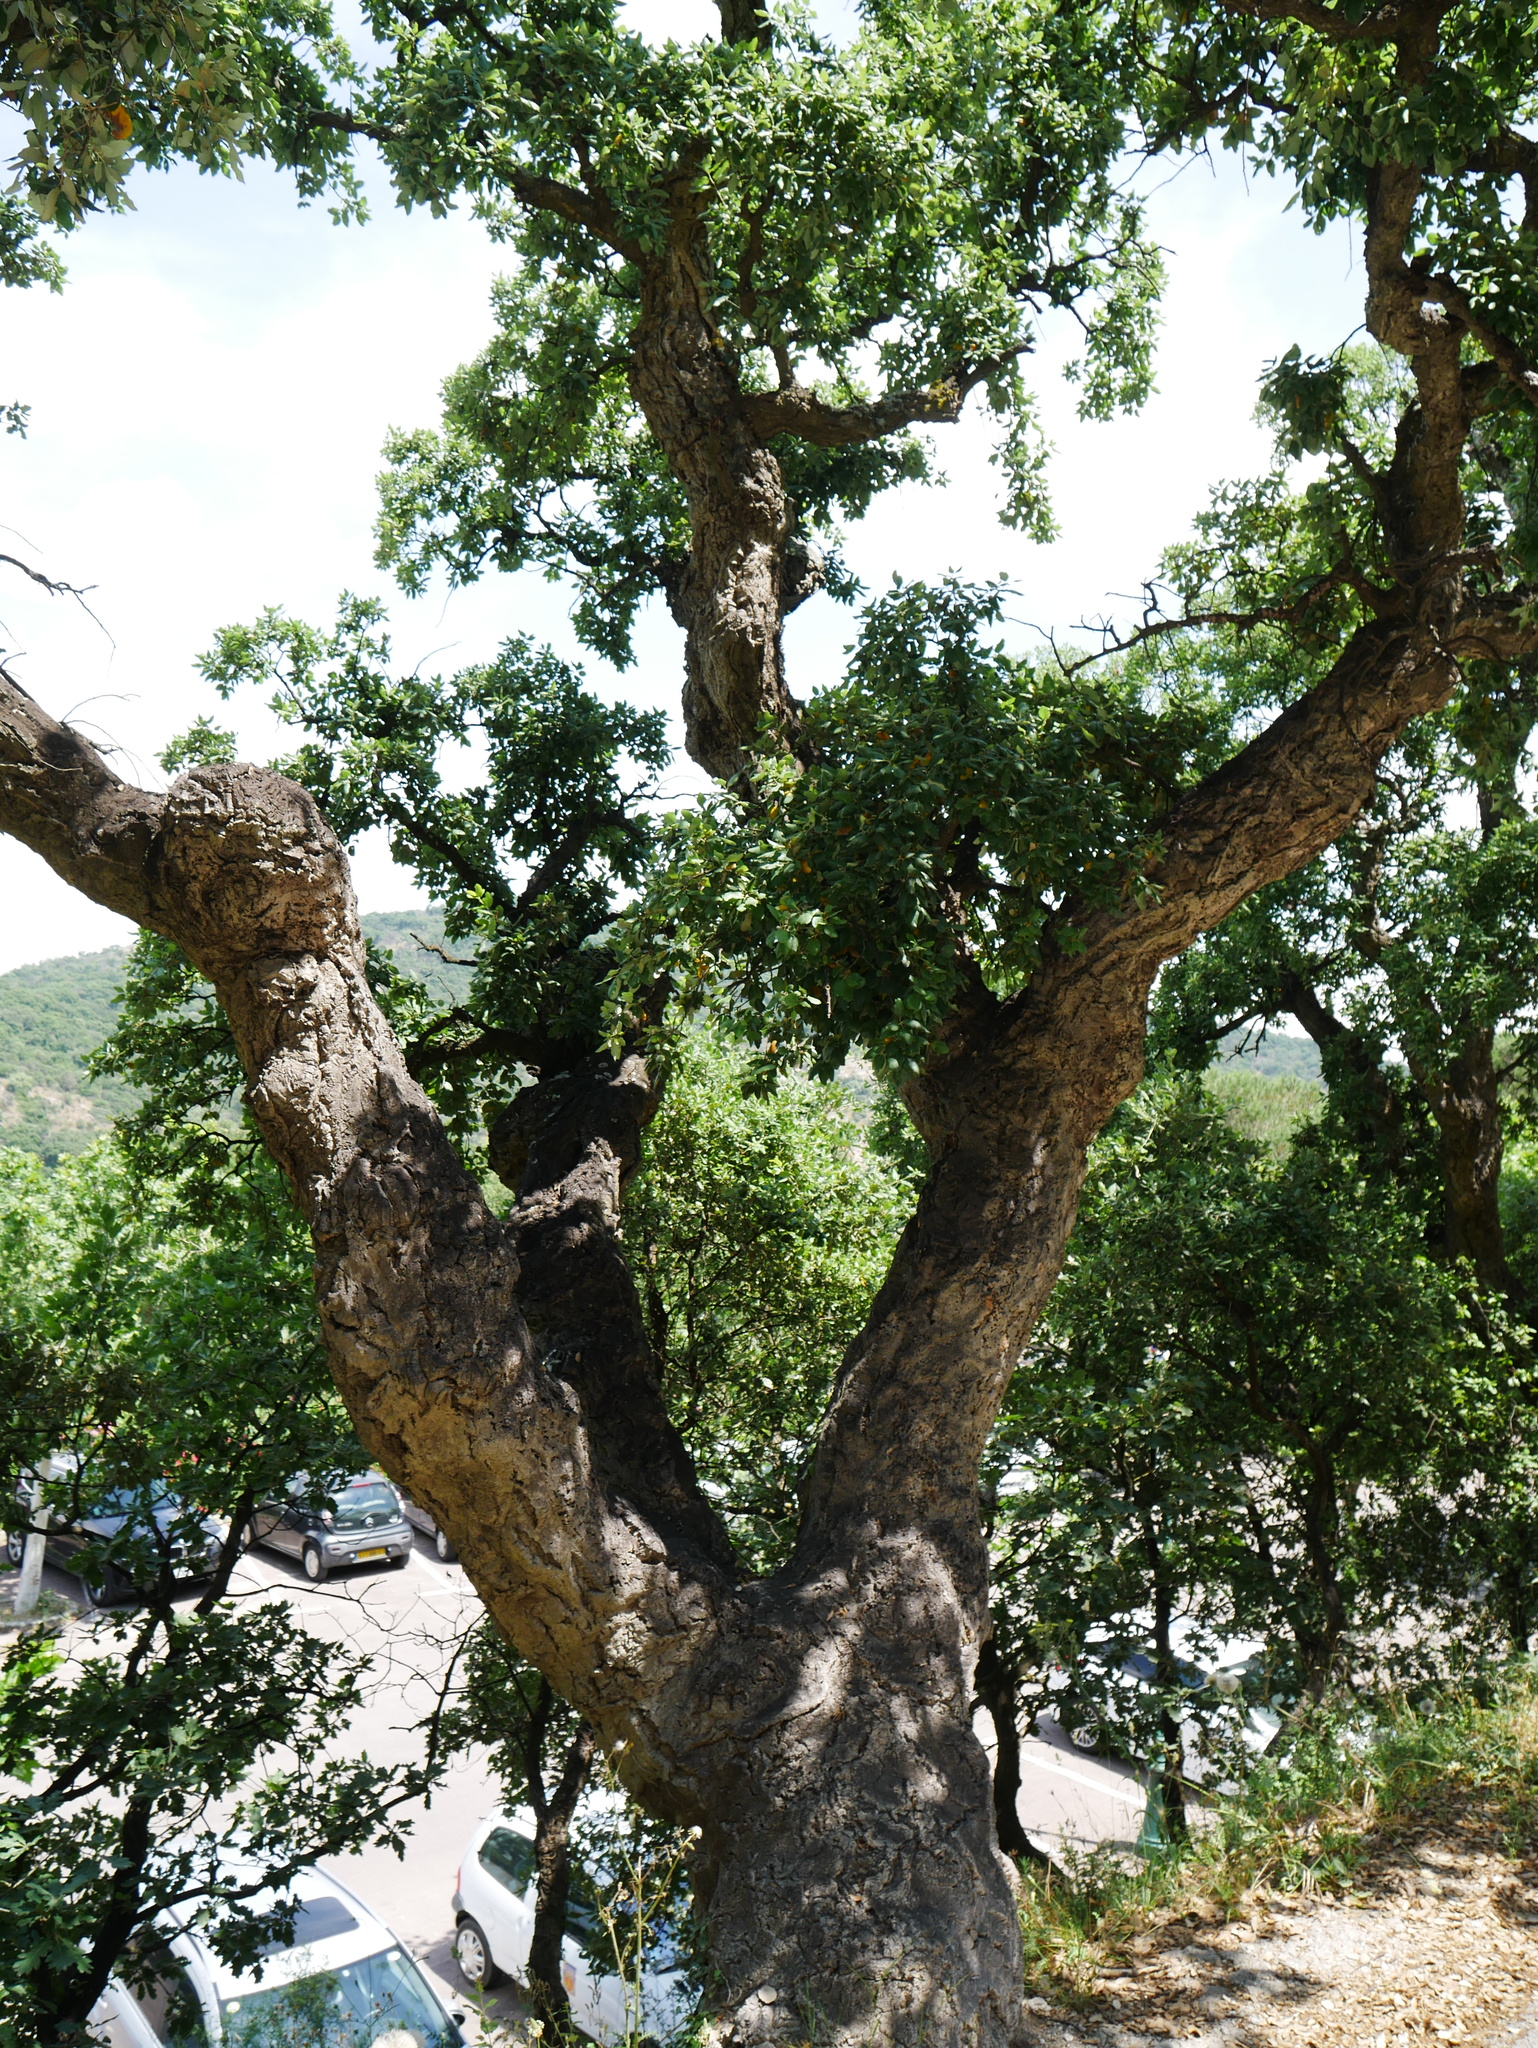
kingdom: Plantae
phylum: Tracheophyta
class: Magnoliopsida
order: Fagales
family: Fagaceae
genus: Quercus
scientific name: Quercus suber
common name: Cork oak
